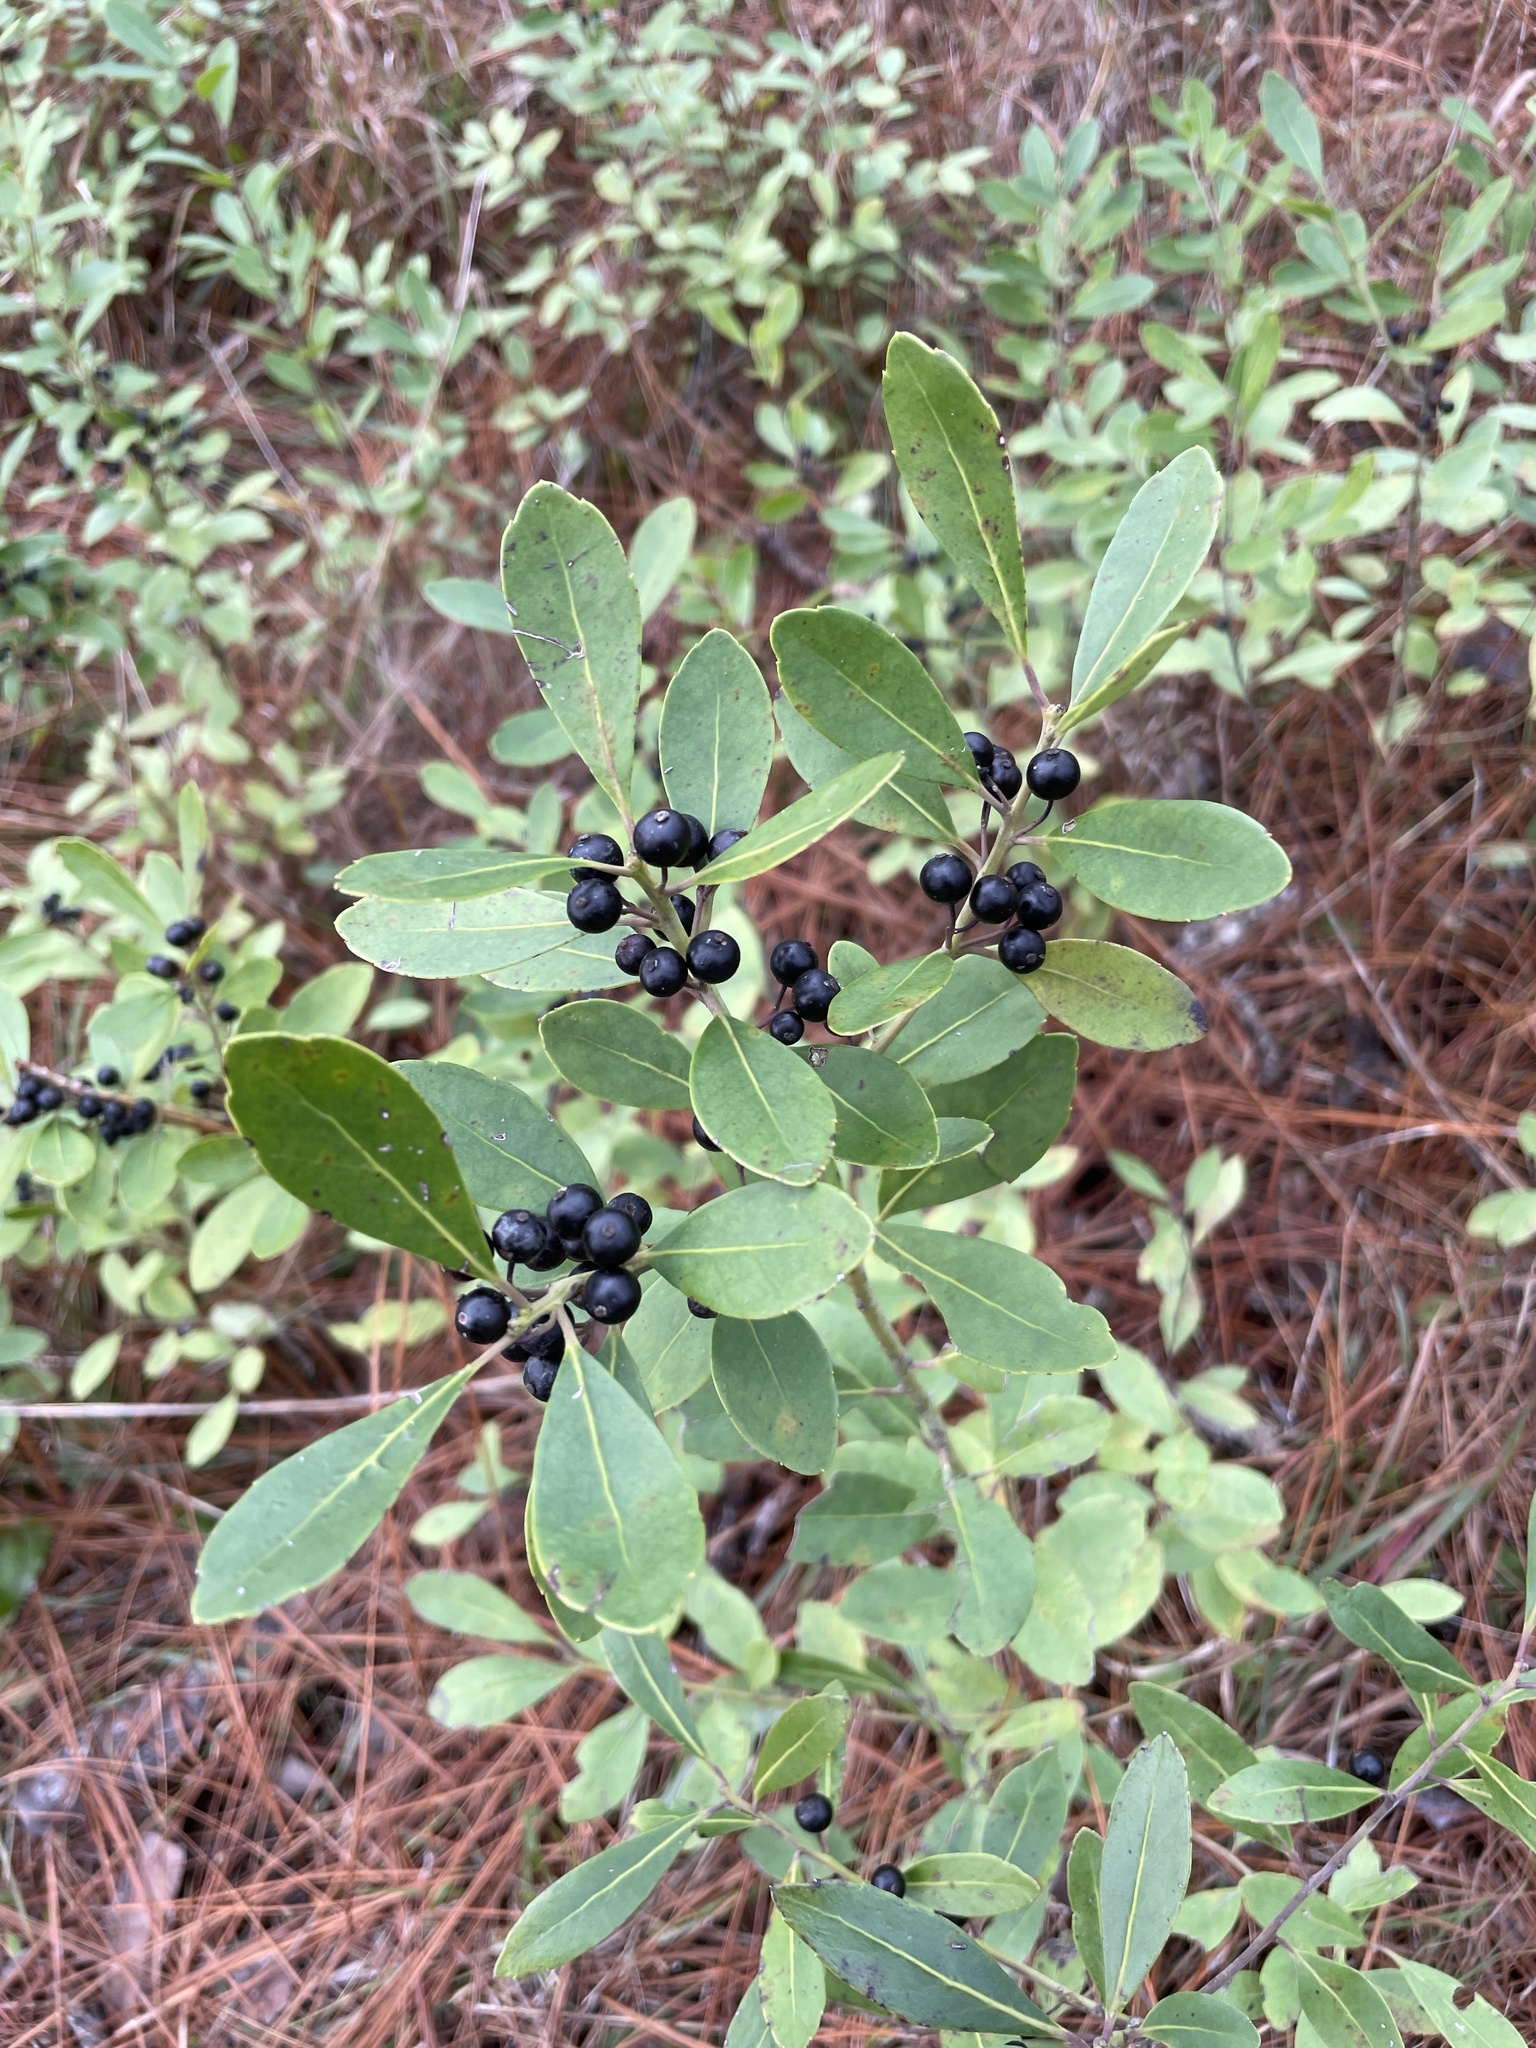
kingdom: Plantae
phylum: Tracheophyta
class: Magnoliopsida
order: Aquifoliales
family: Aquifoliaceae
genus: Ilex
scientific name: Ilex glabra
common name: Bitter gallberry
